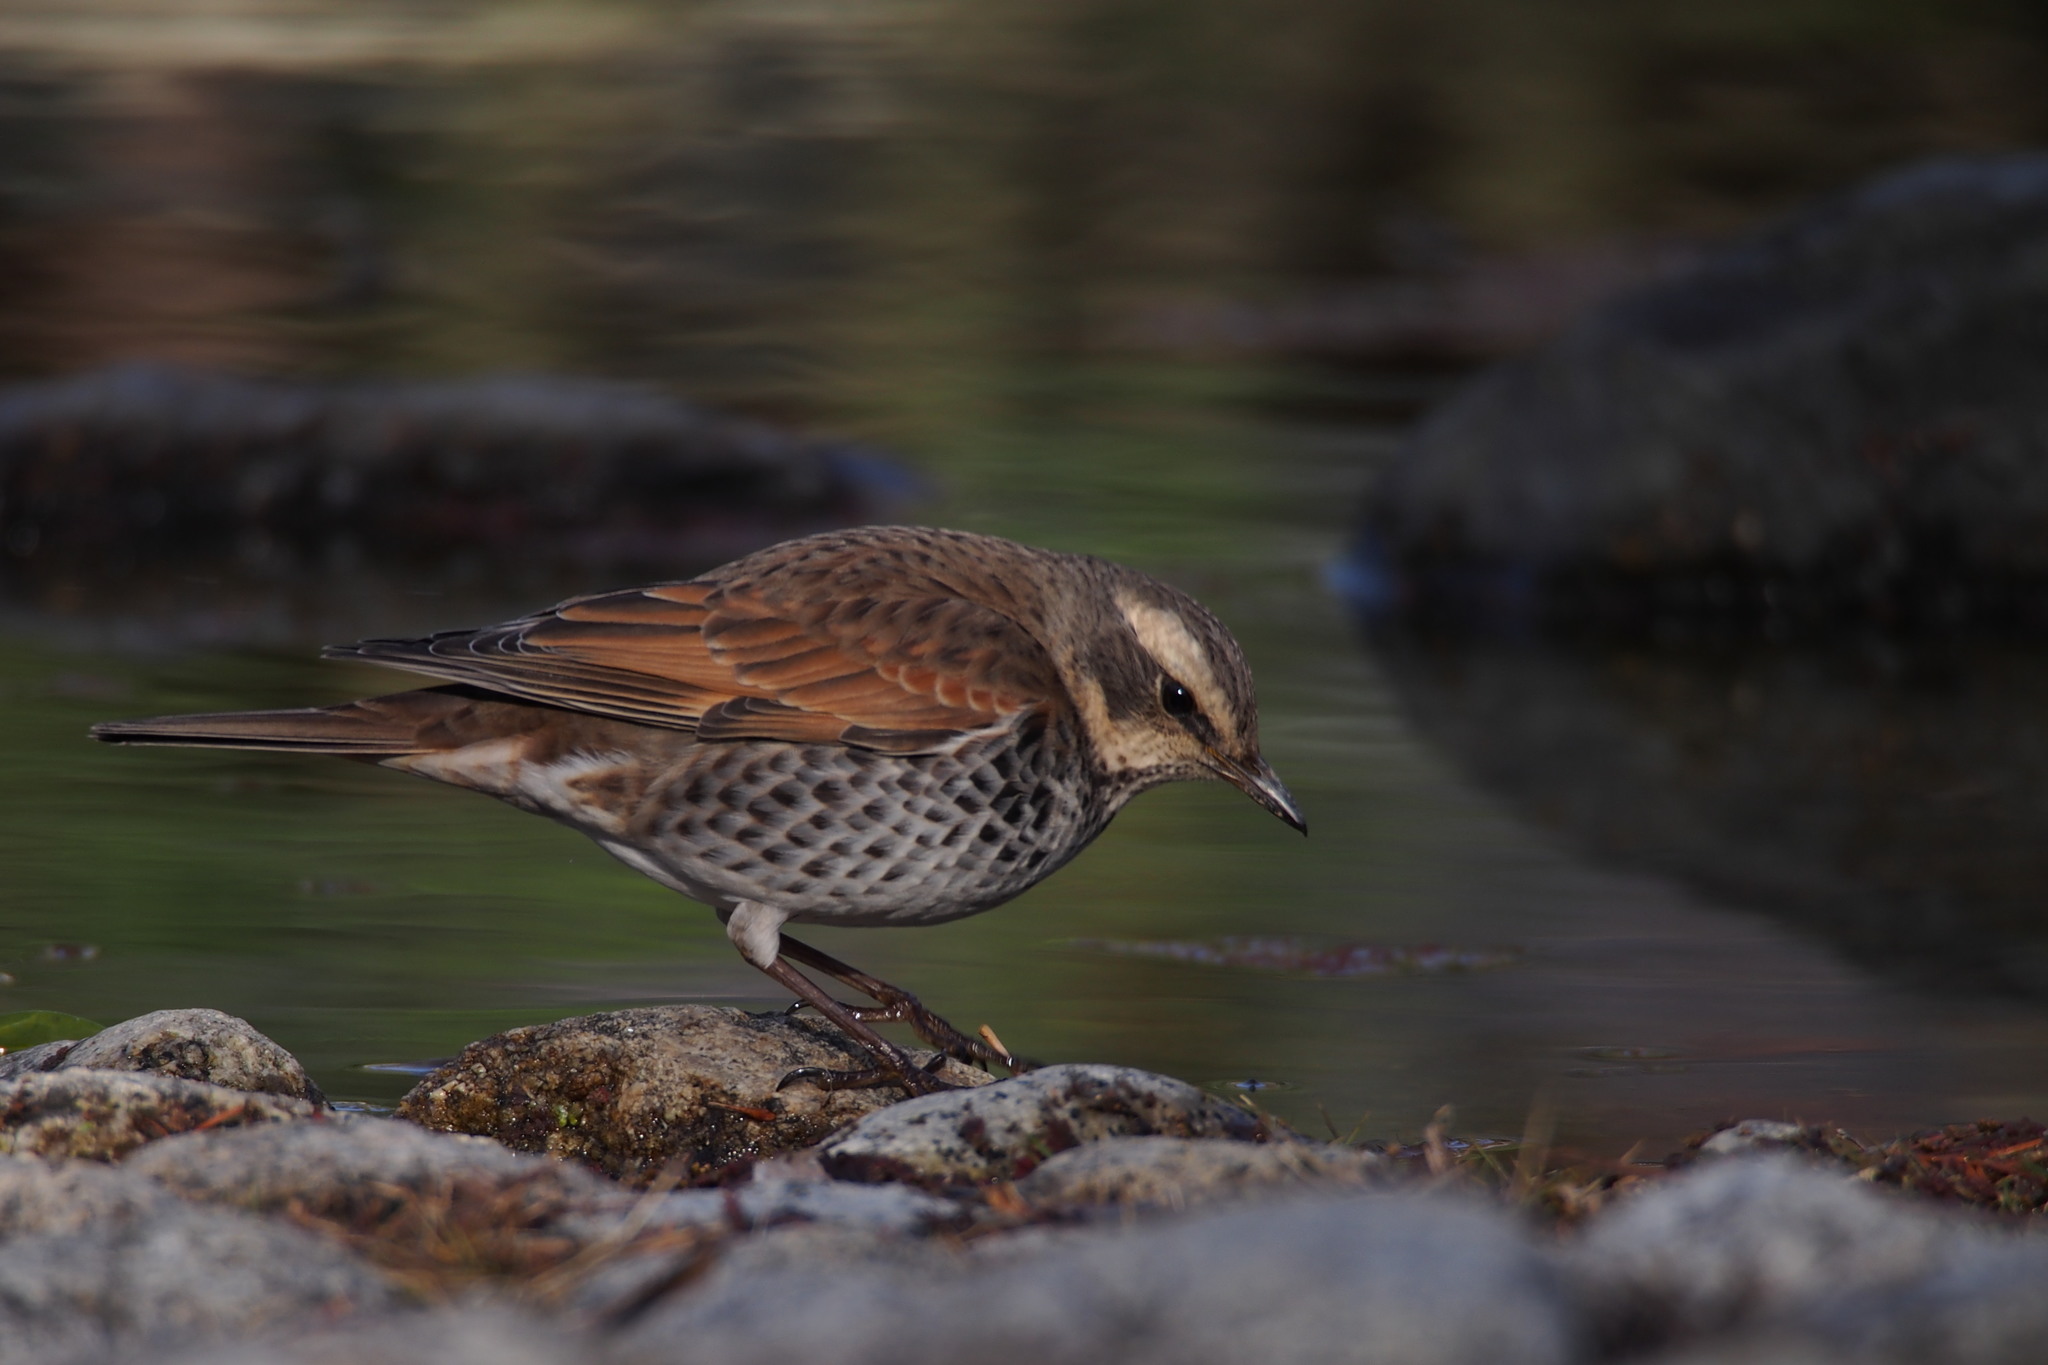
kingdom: Animalia
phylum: Chordata
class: Aves
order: Passeriformes
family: Turdidae
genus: Turdus
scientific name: Turdus eunomus
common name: Dusky thrush
